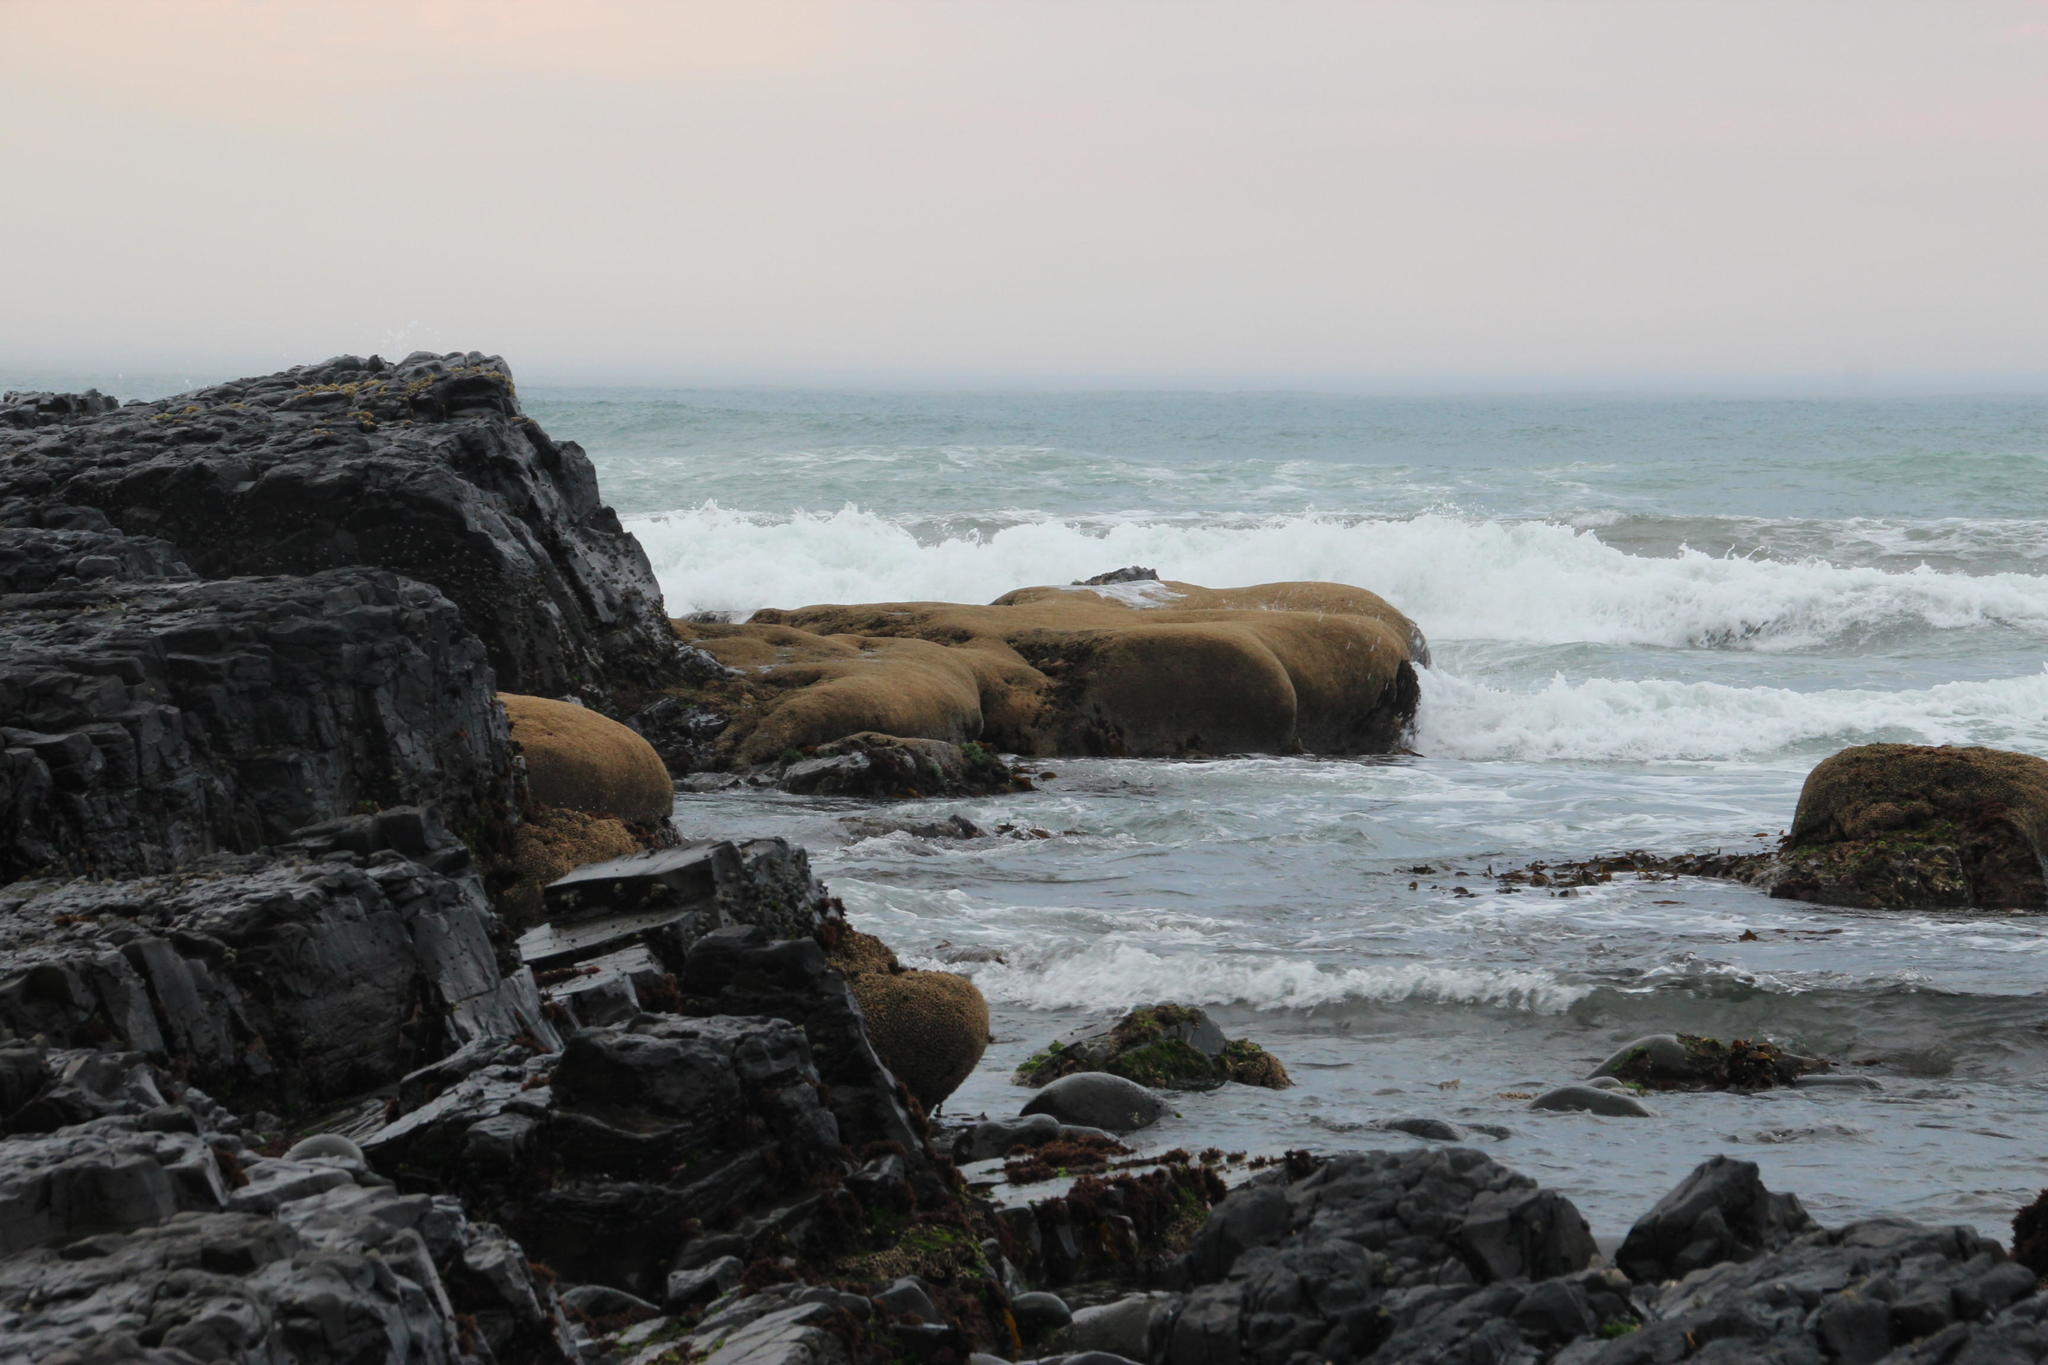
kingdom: Animalia
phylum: Annelida
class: Polychaeta
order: Sabellida
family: Sabellariidae
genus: Gunnarea
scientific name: Gunnarea gaimardi
